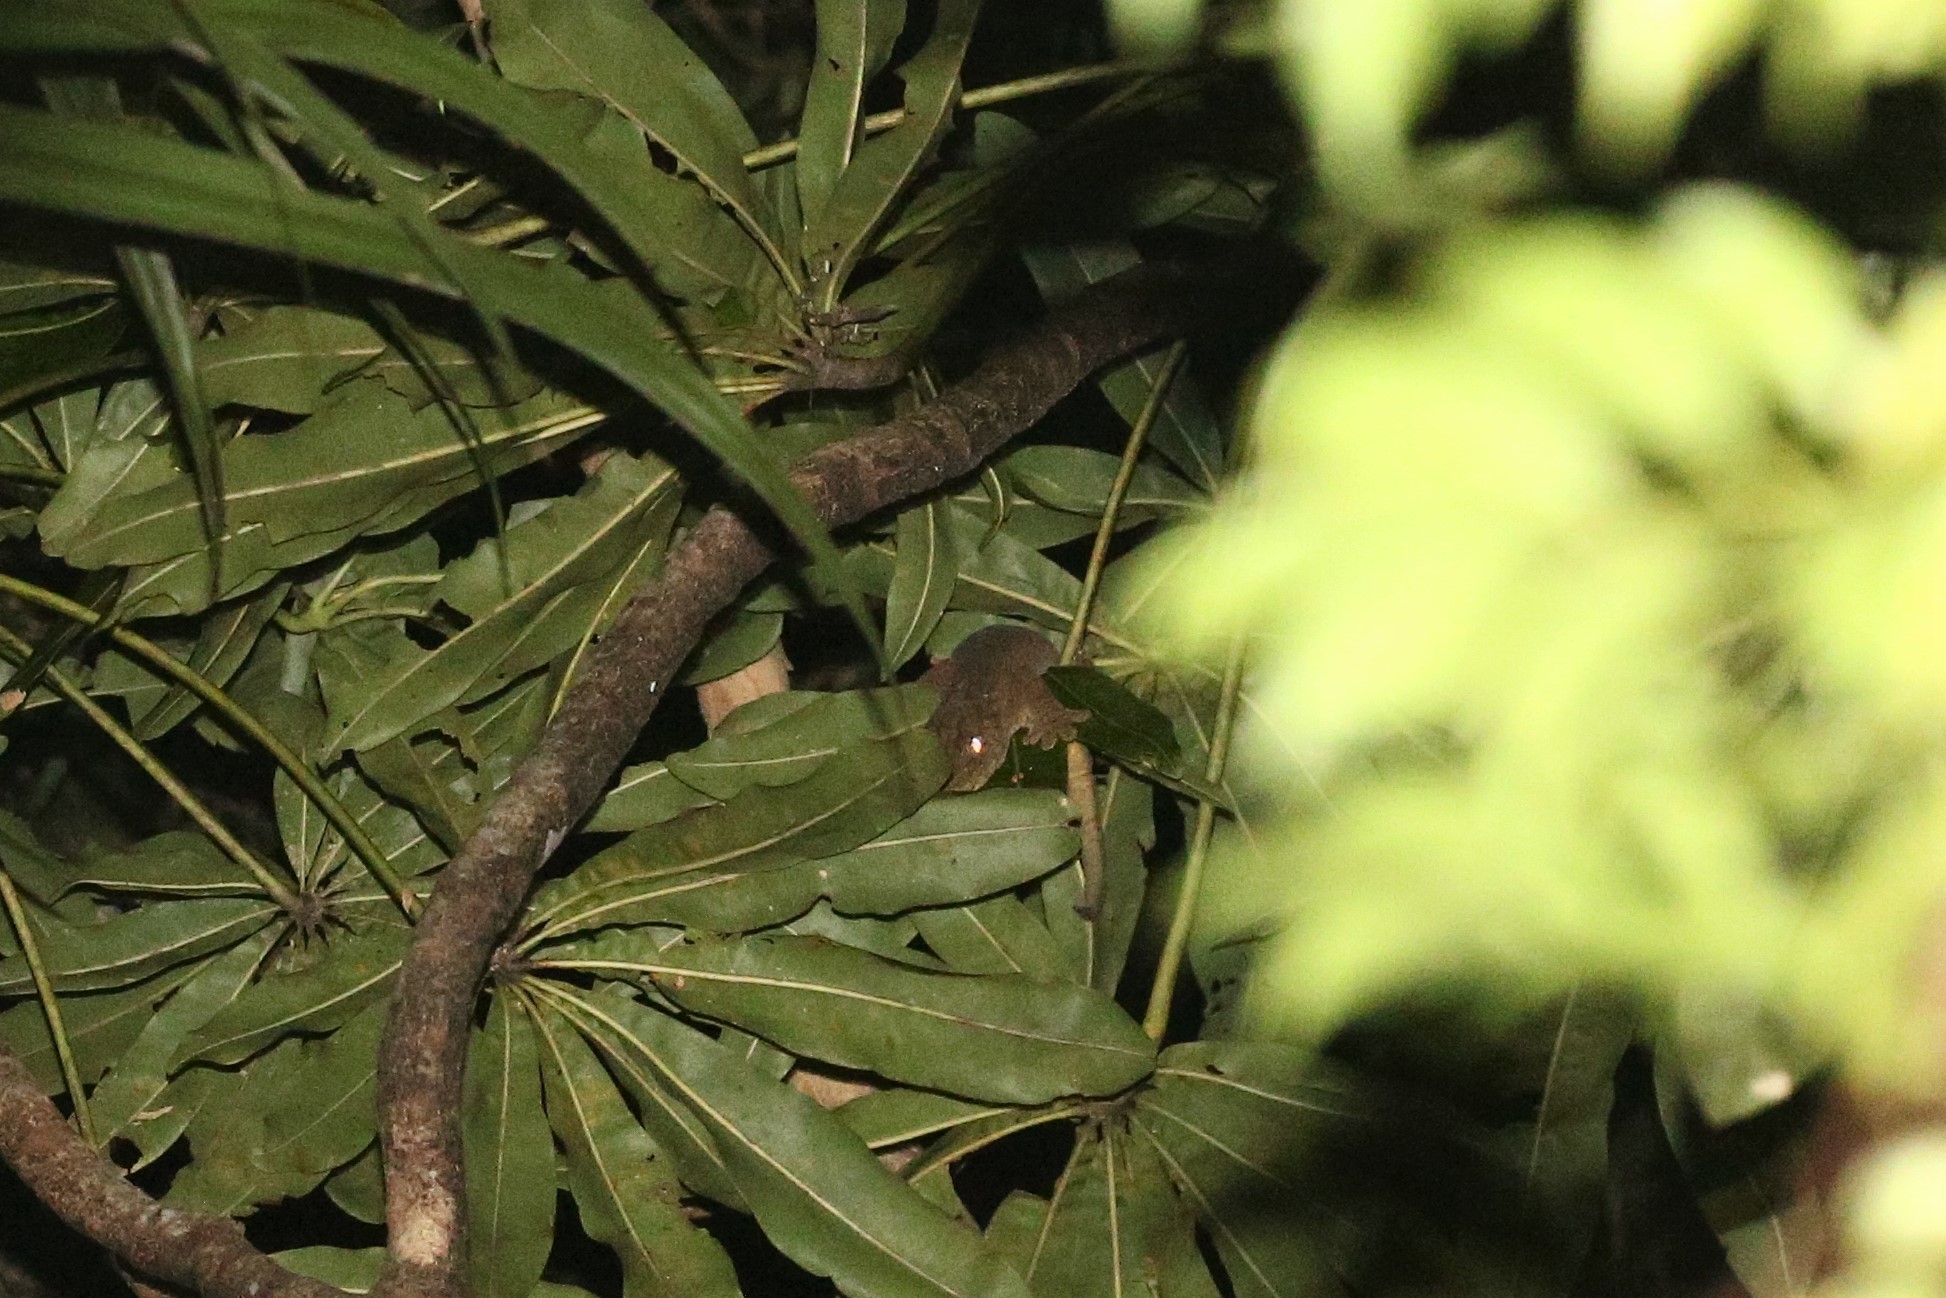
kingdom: Animalia
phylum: Chordata
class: Squamata
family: Diplodactylidae
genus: Rhacodactylus
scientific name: Rhacodactylus leachianus
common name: New caledonia giant gecko
